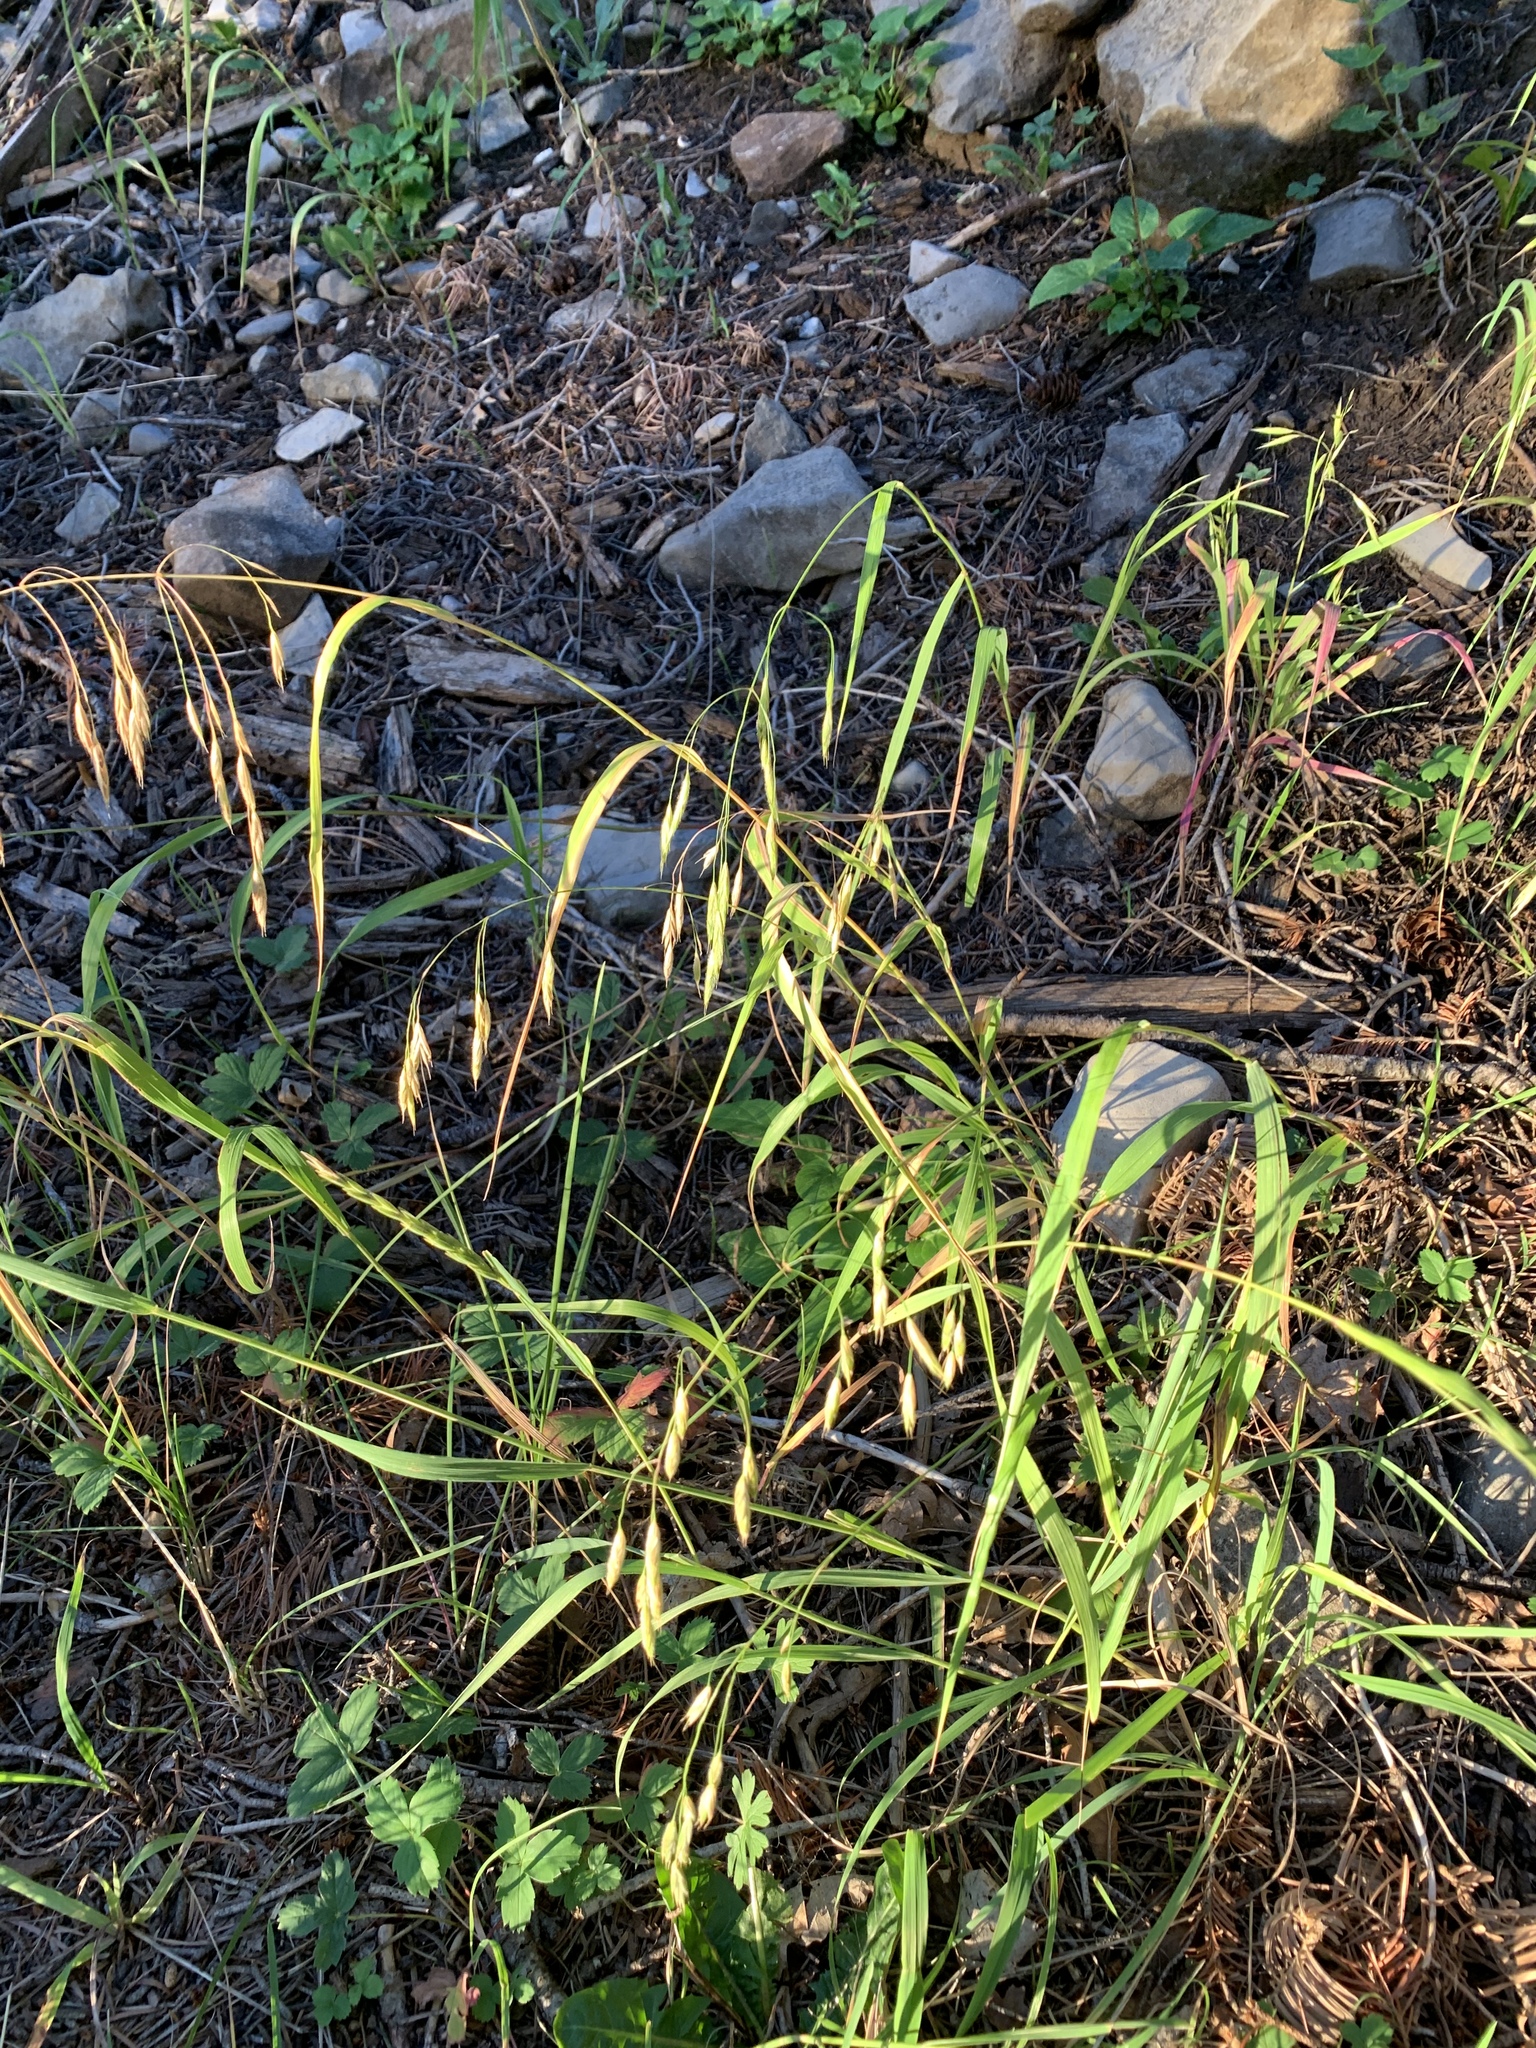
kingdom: Plantae
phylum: Tracheophyta
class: Liliopsida
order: Poales
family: Poaceae
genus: Bromus
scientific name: Bromus ciliatus
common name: Fringe brome
